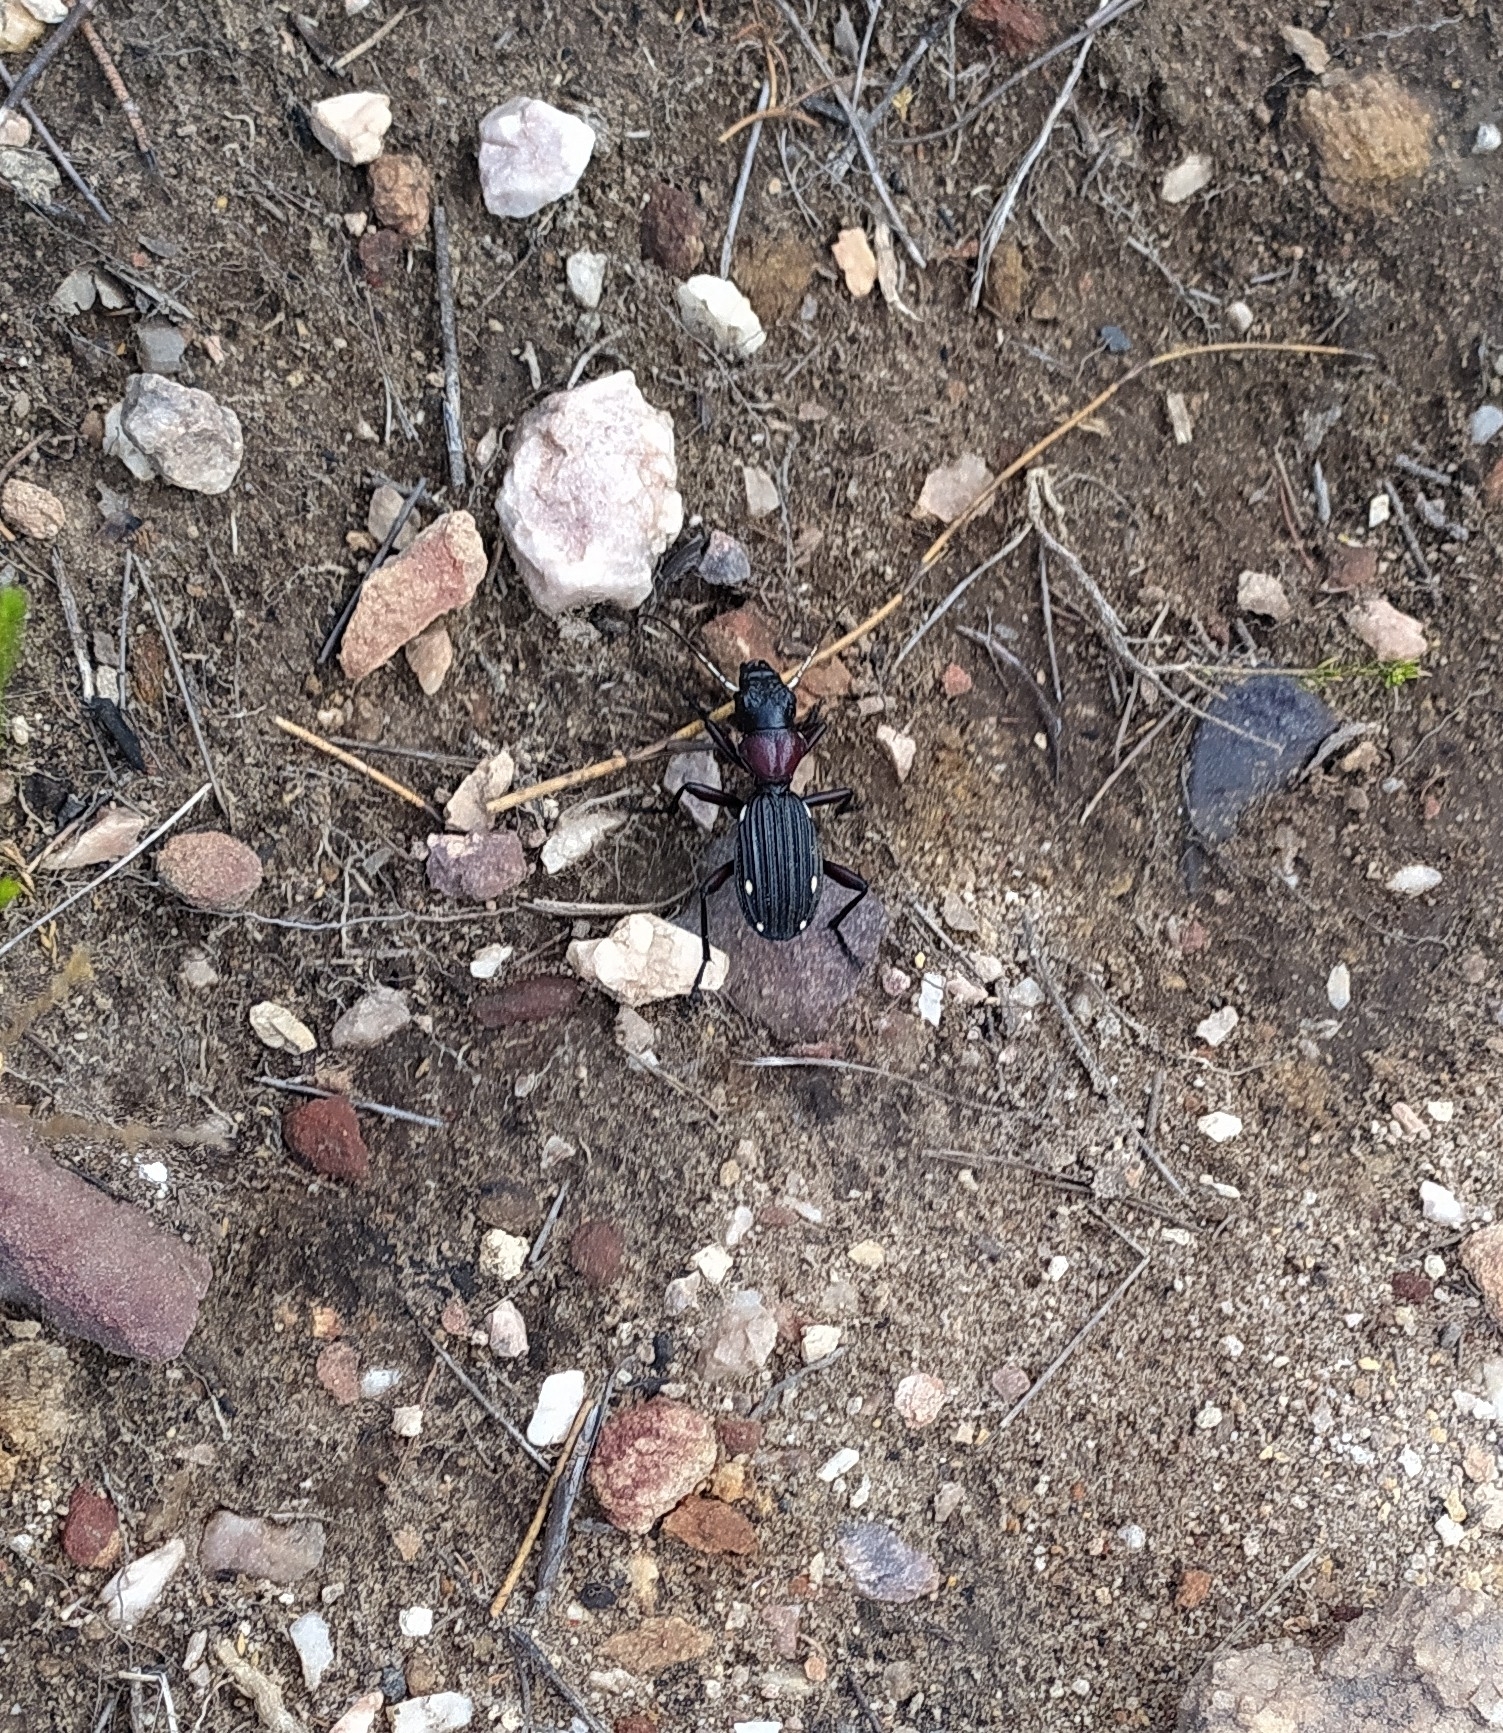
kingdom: Animalia
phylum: Arthropoda
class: Insecta
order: Coleoptera
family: Carabidae
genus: Anthia
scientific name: Anthia decemguttata
